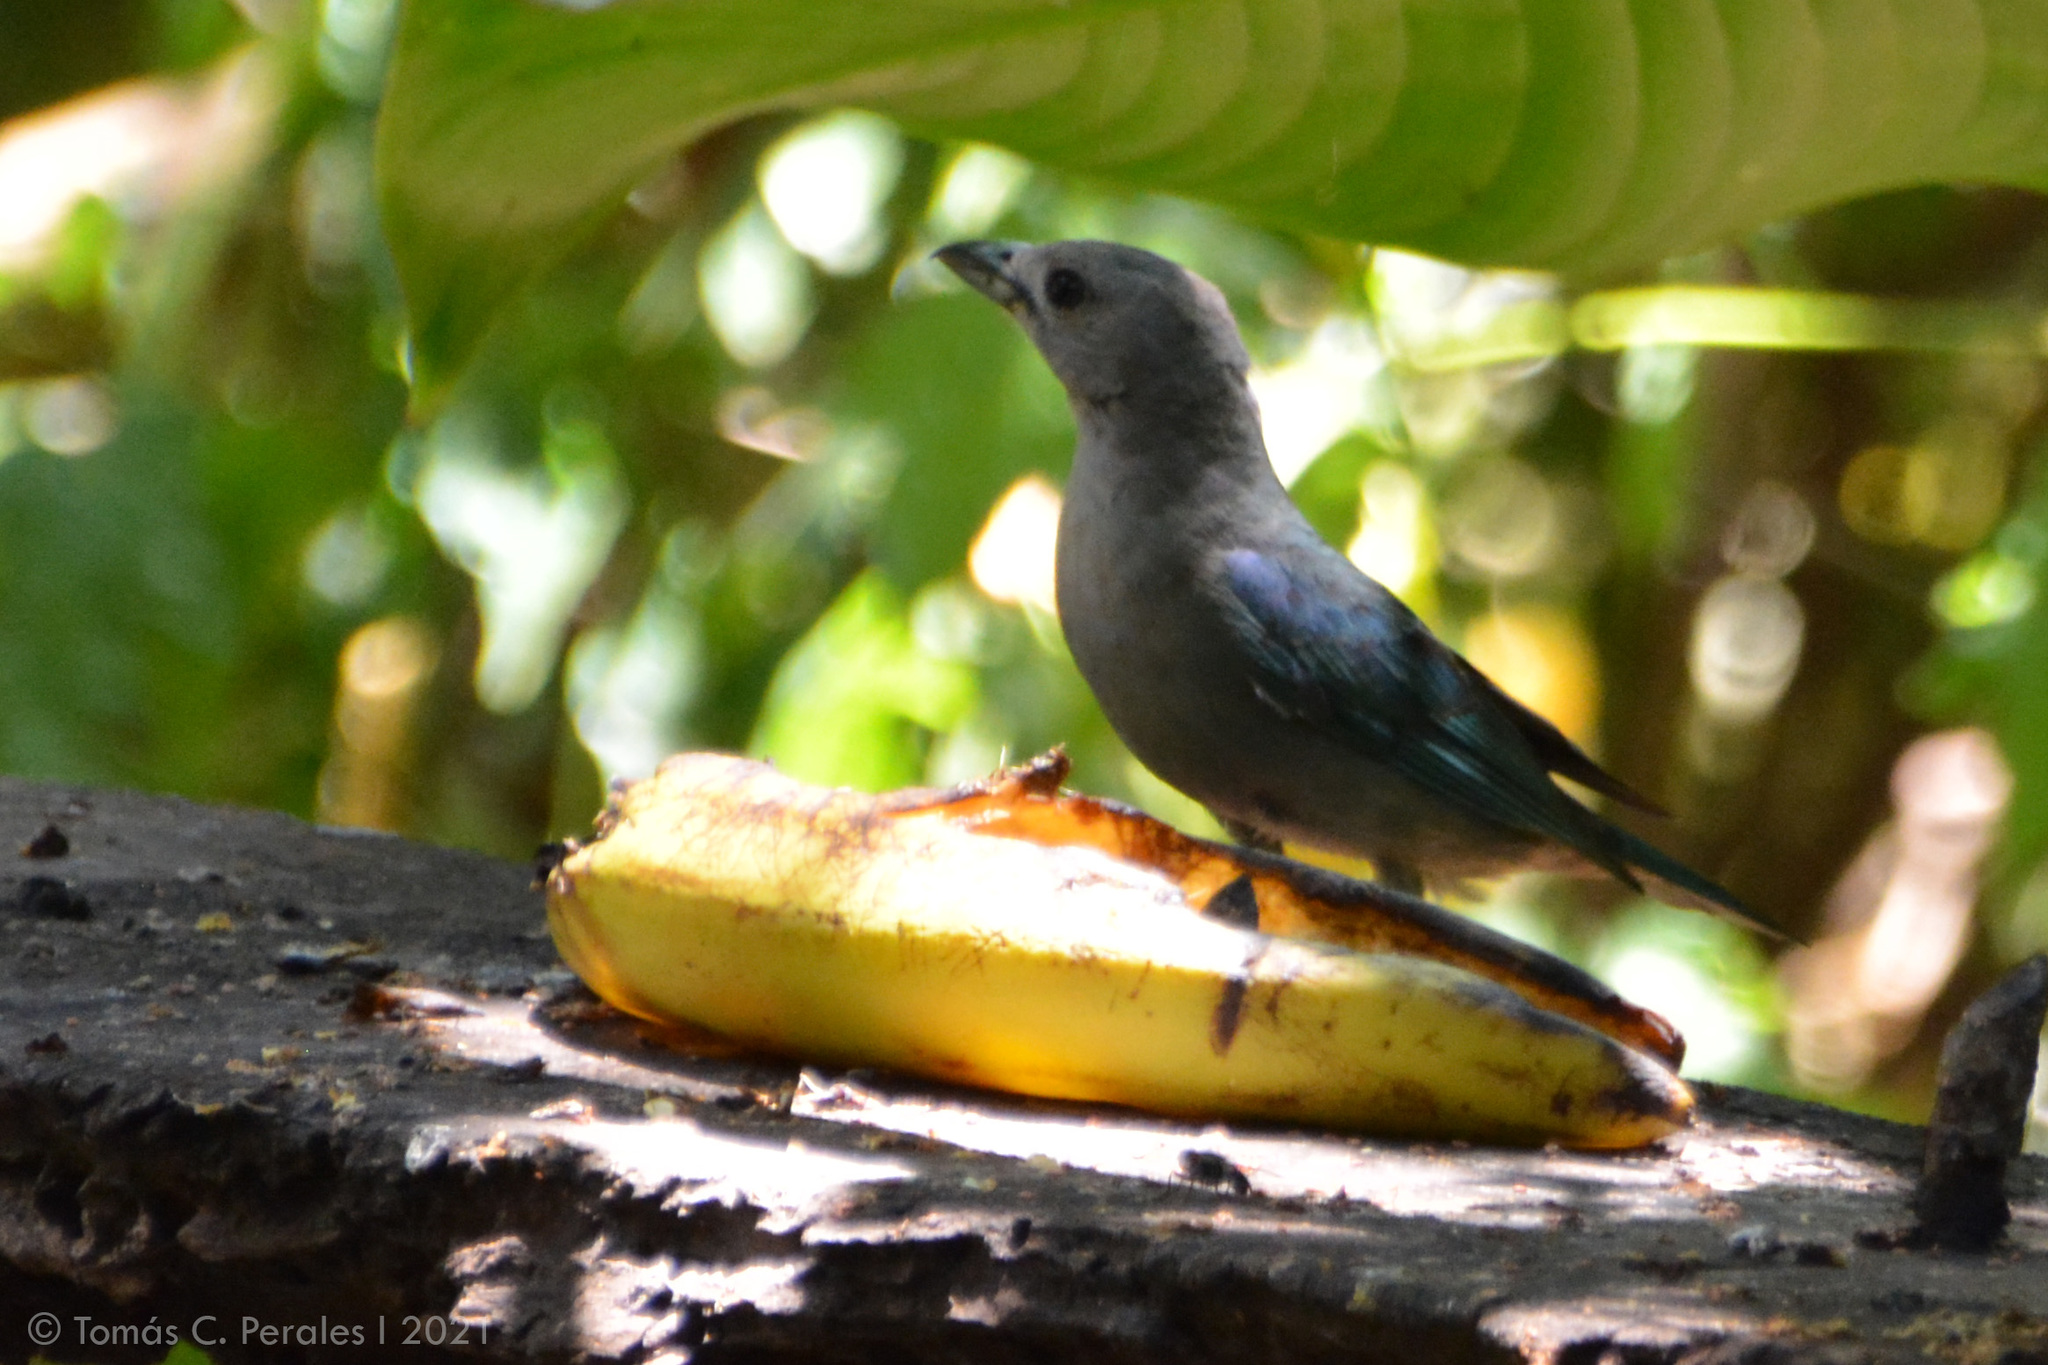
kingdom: Animalia
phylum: Chordata
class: Aves
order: Passeriformes
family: Thraupidae
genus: Thraupis
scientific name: Thraupis sayaca
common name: Sayaca tanager
